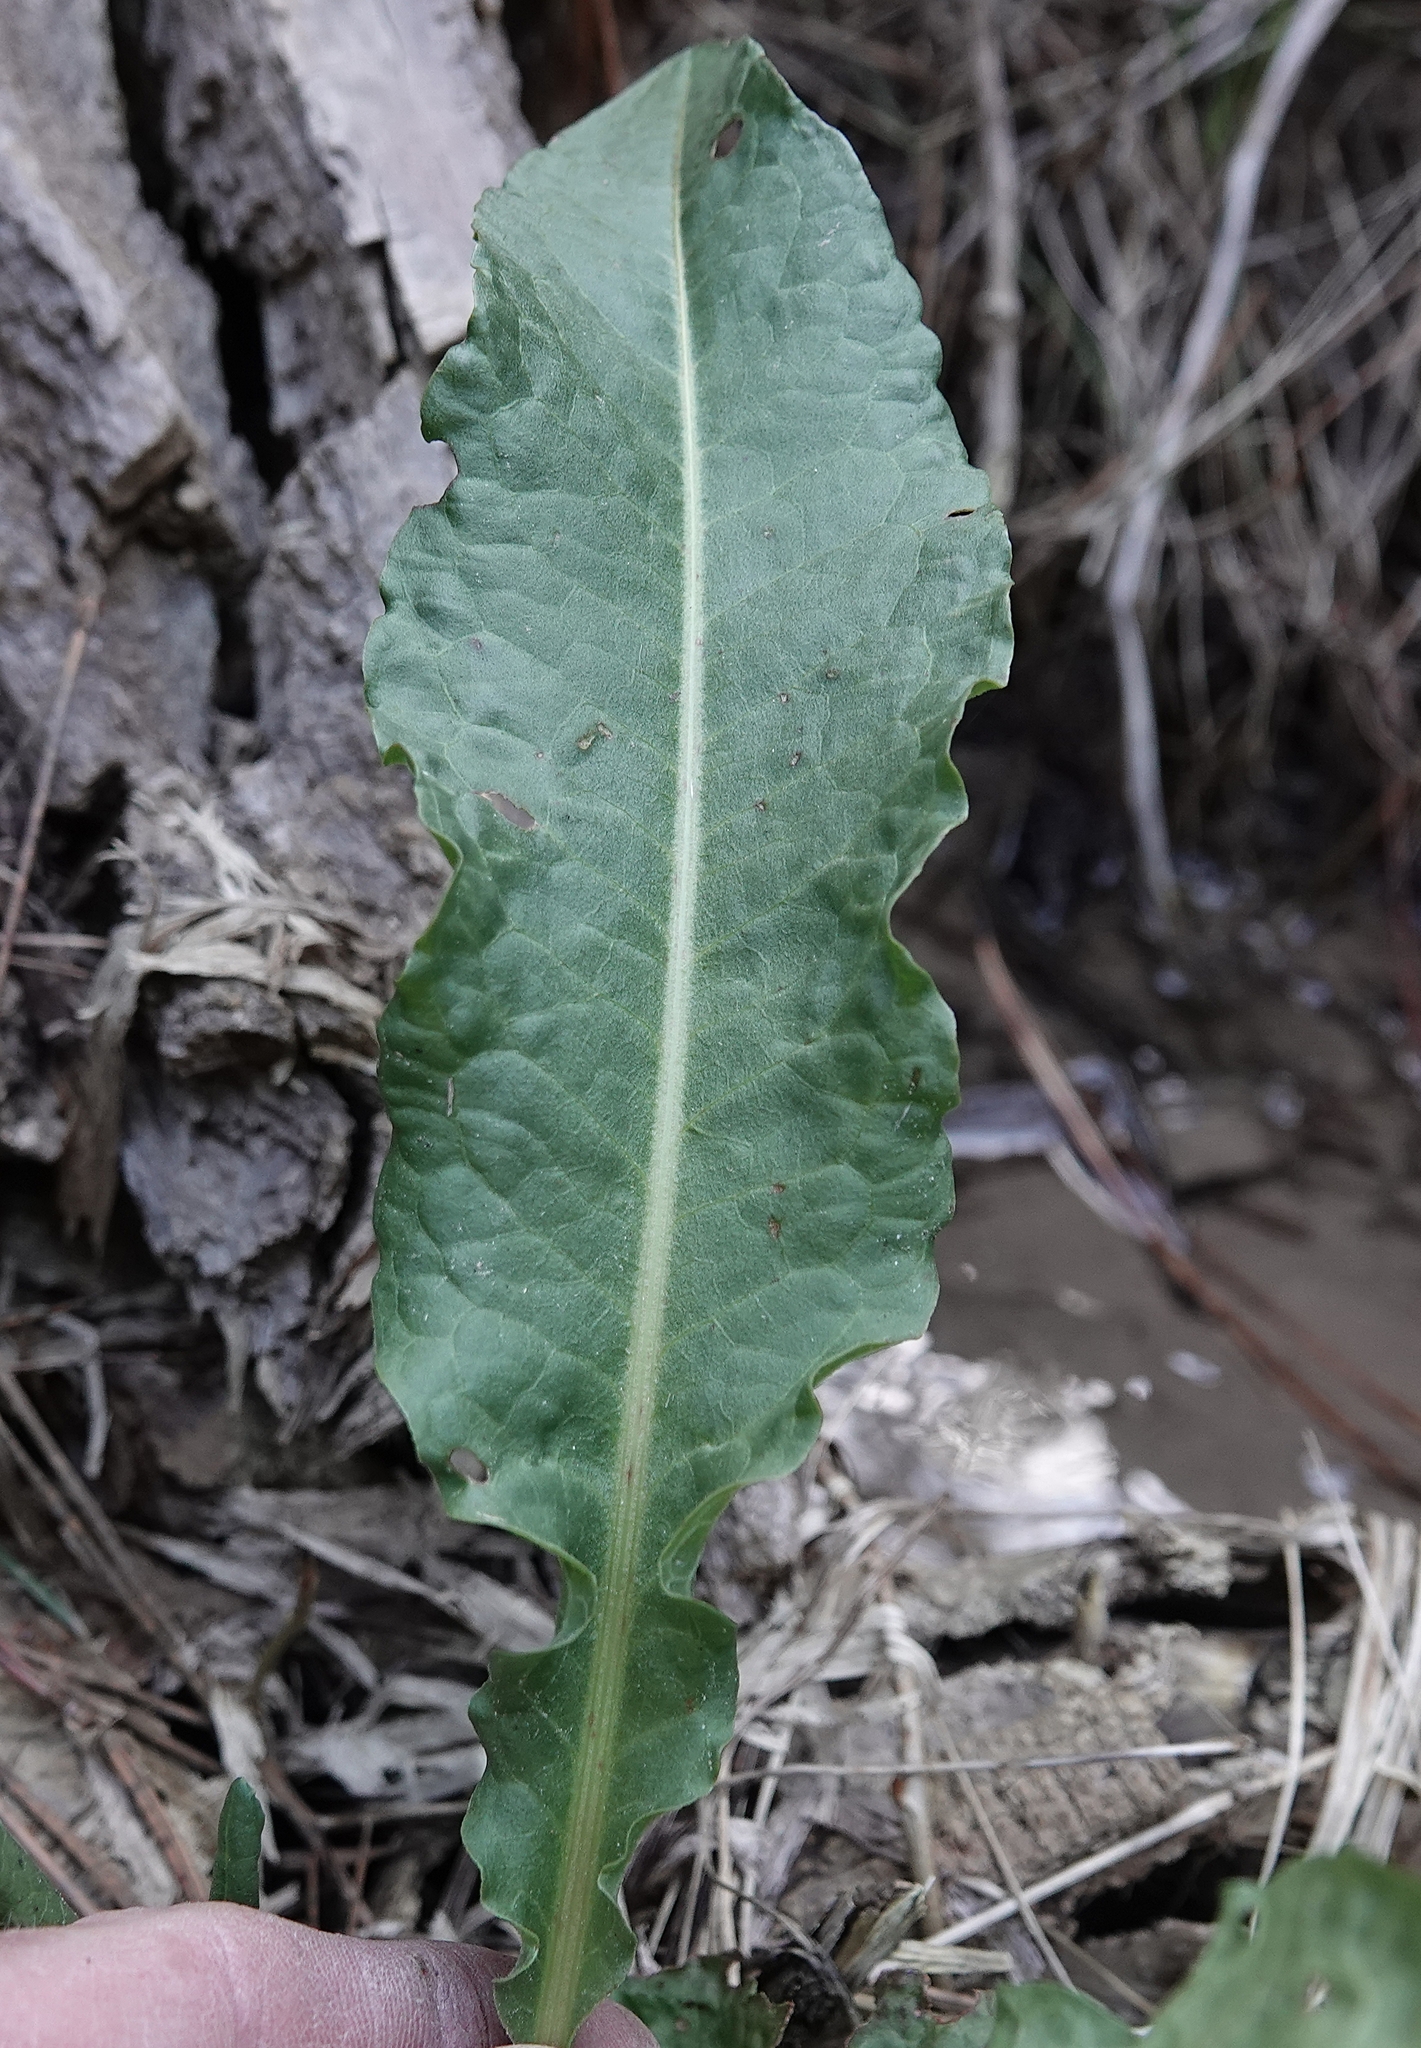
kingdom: Plantae
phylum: Tracheophyta
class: Magnoliopsida
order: Caryophyllales
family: Polygonaceae
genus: Rumex
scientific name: Rumex crispus
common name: Curled dock
